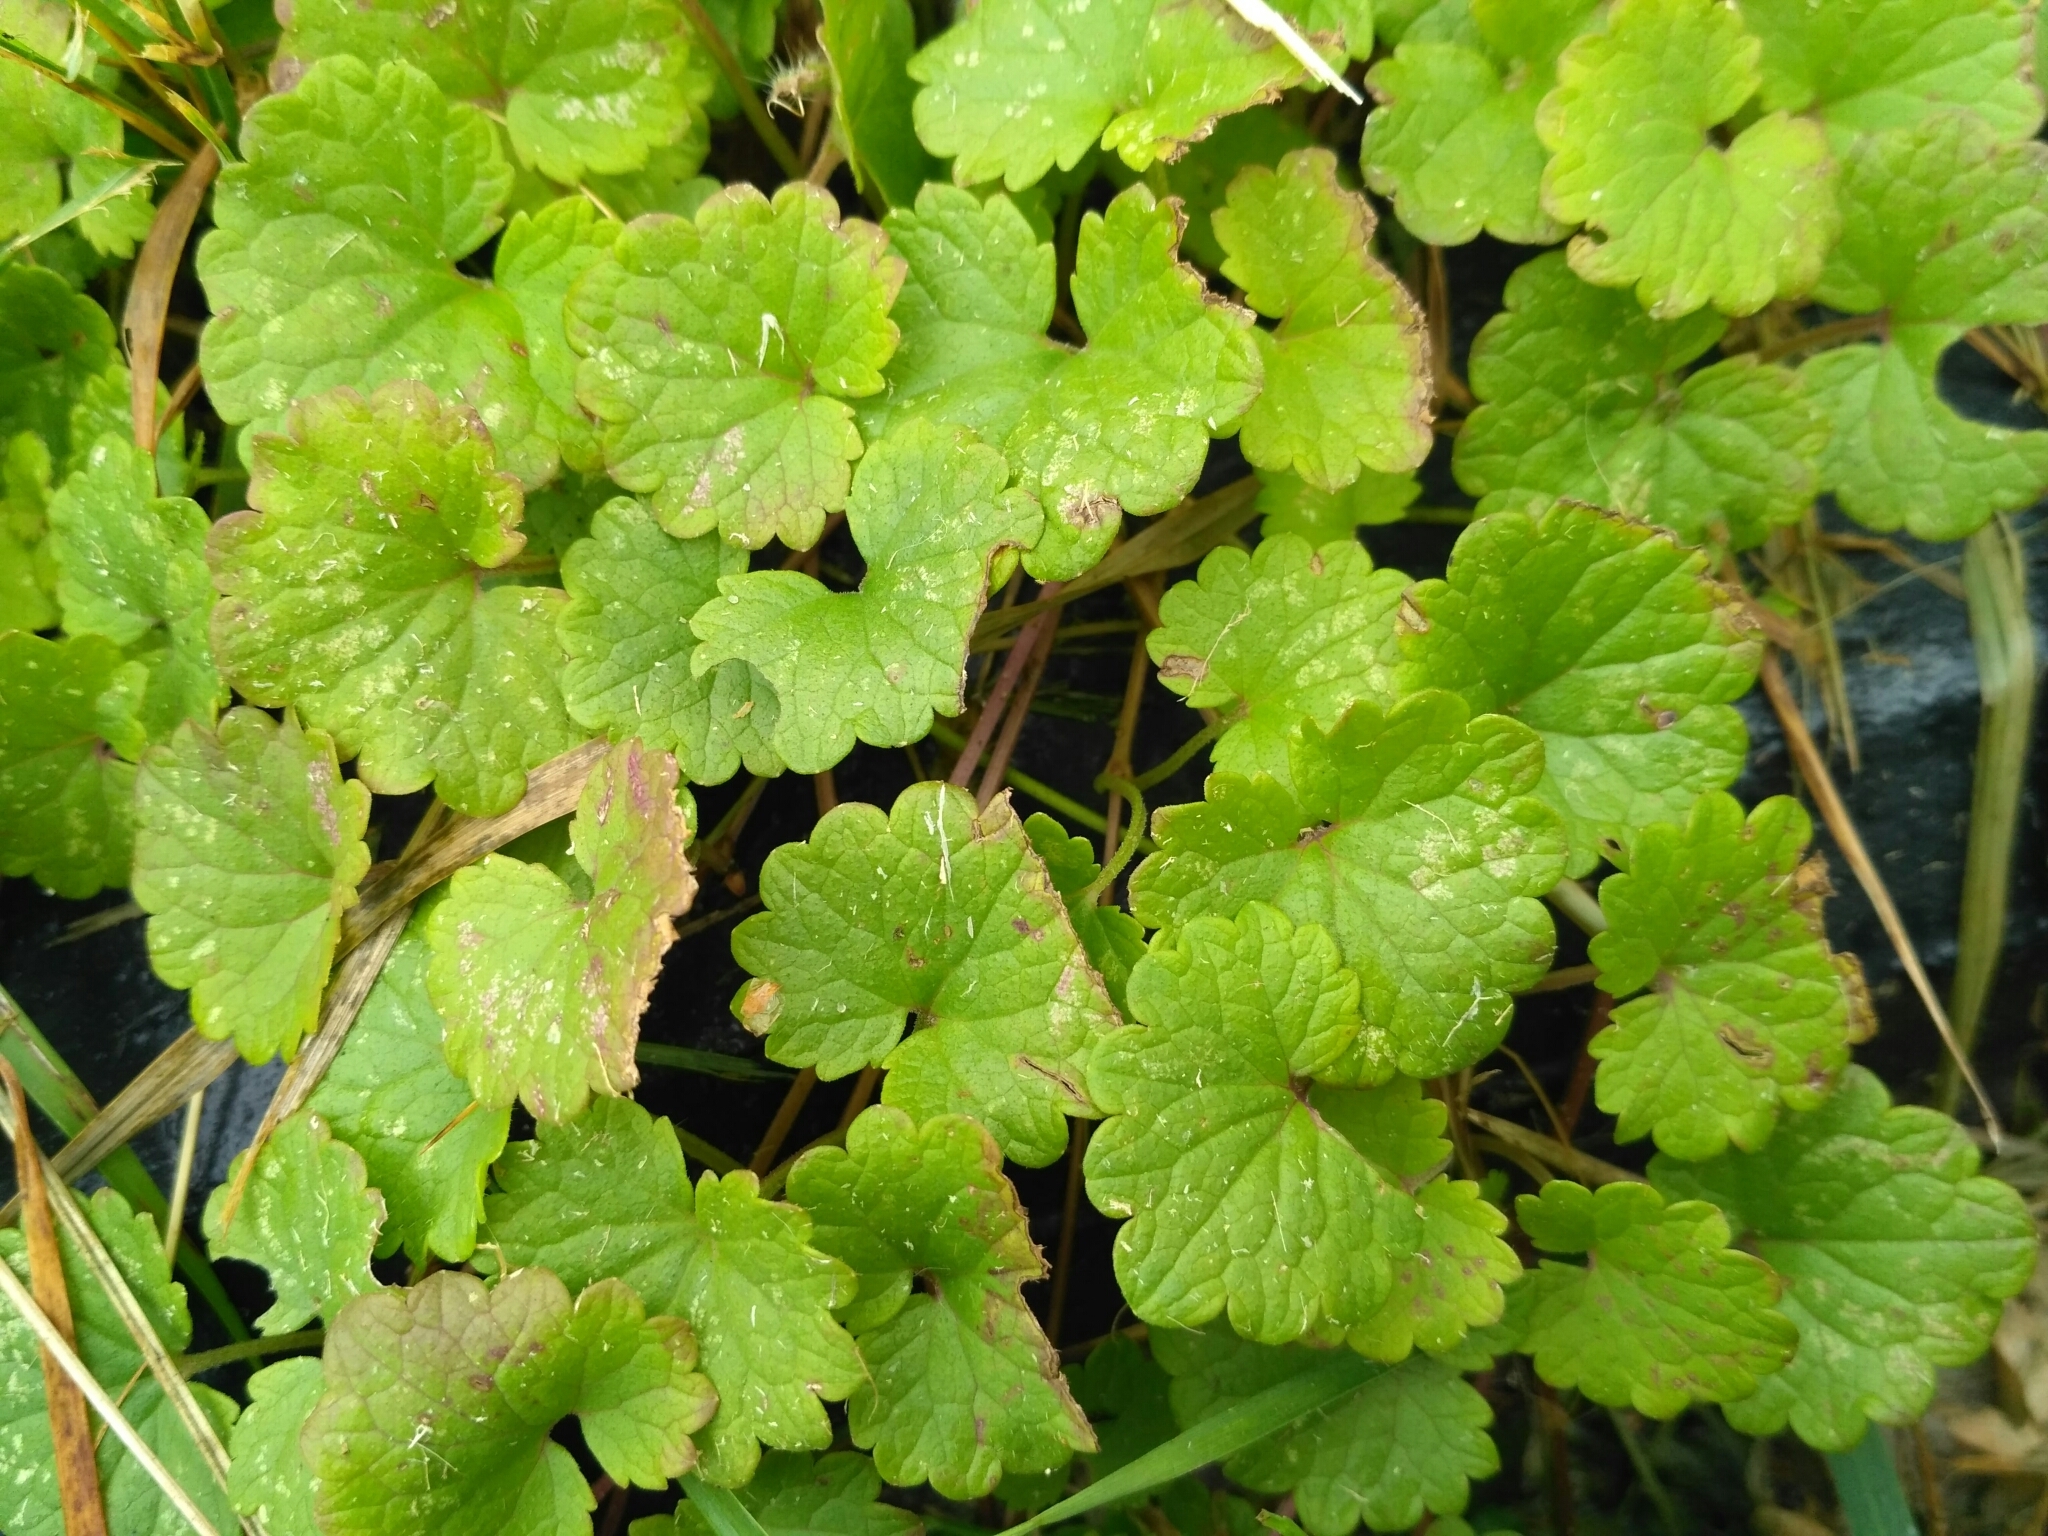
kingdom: Plantae
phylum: Tracheophyta
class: Magnoliopsida
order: Lamiales
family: Lamiaceae
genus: Glechoma
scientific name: Glechoma hederacea
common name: Ground ivy
